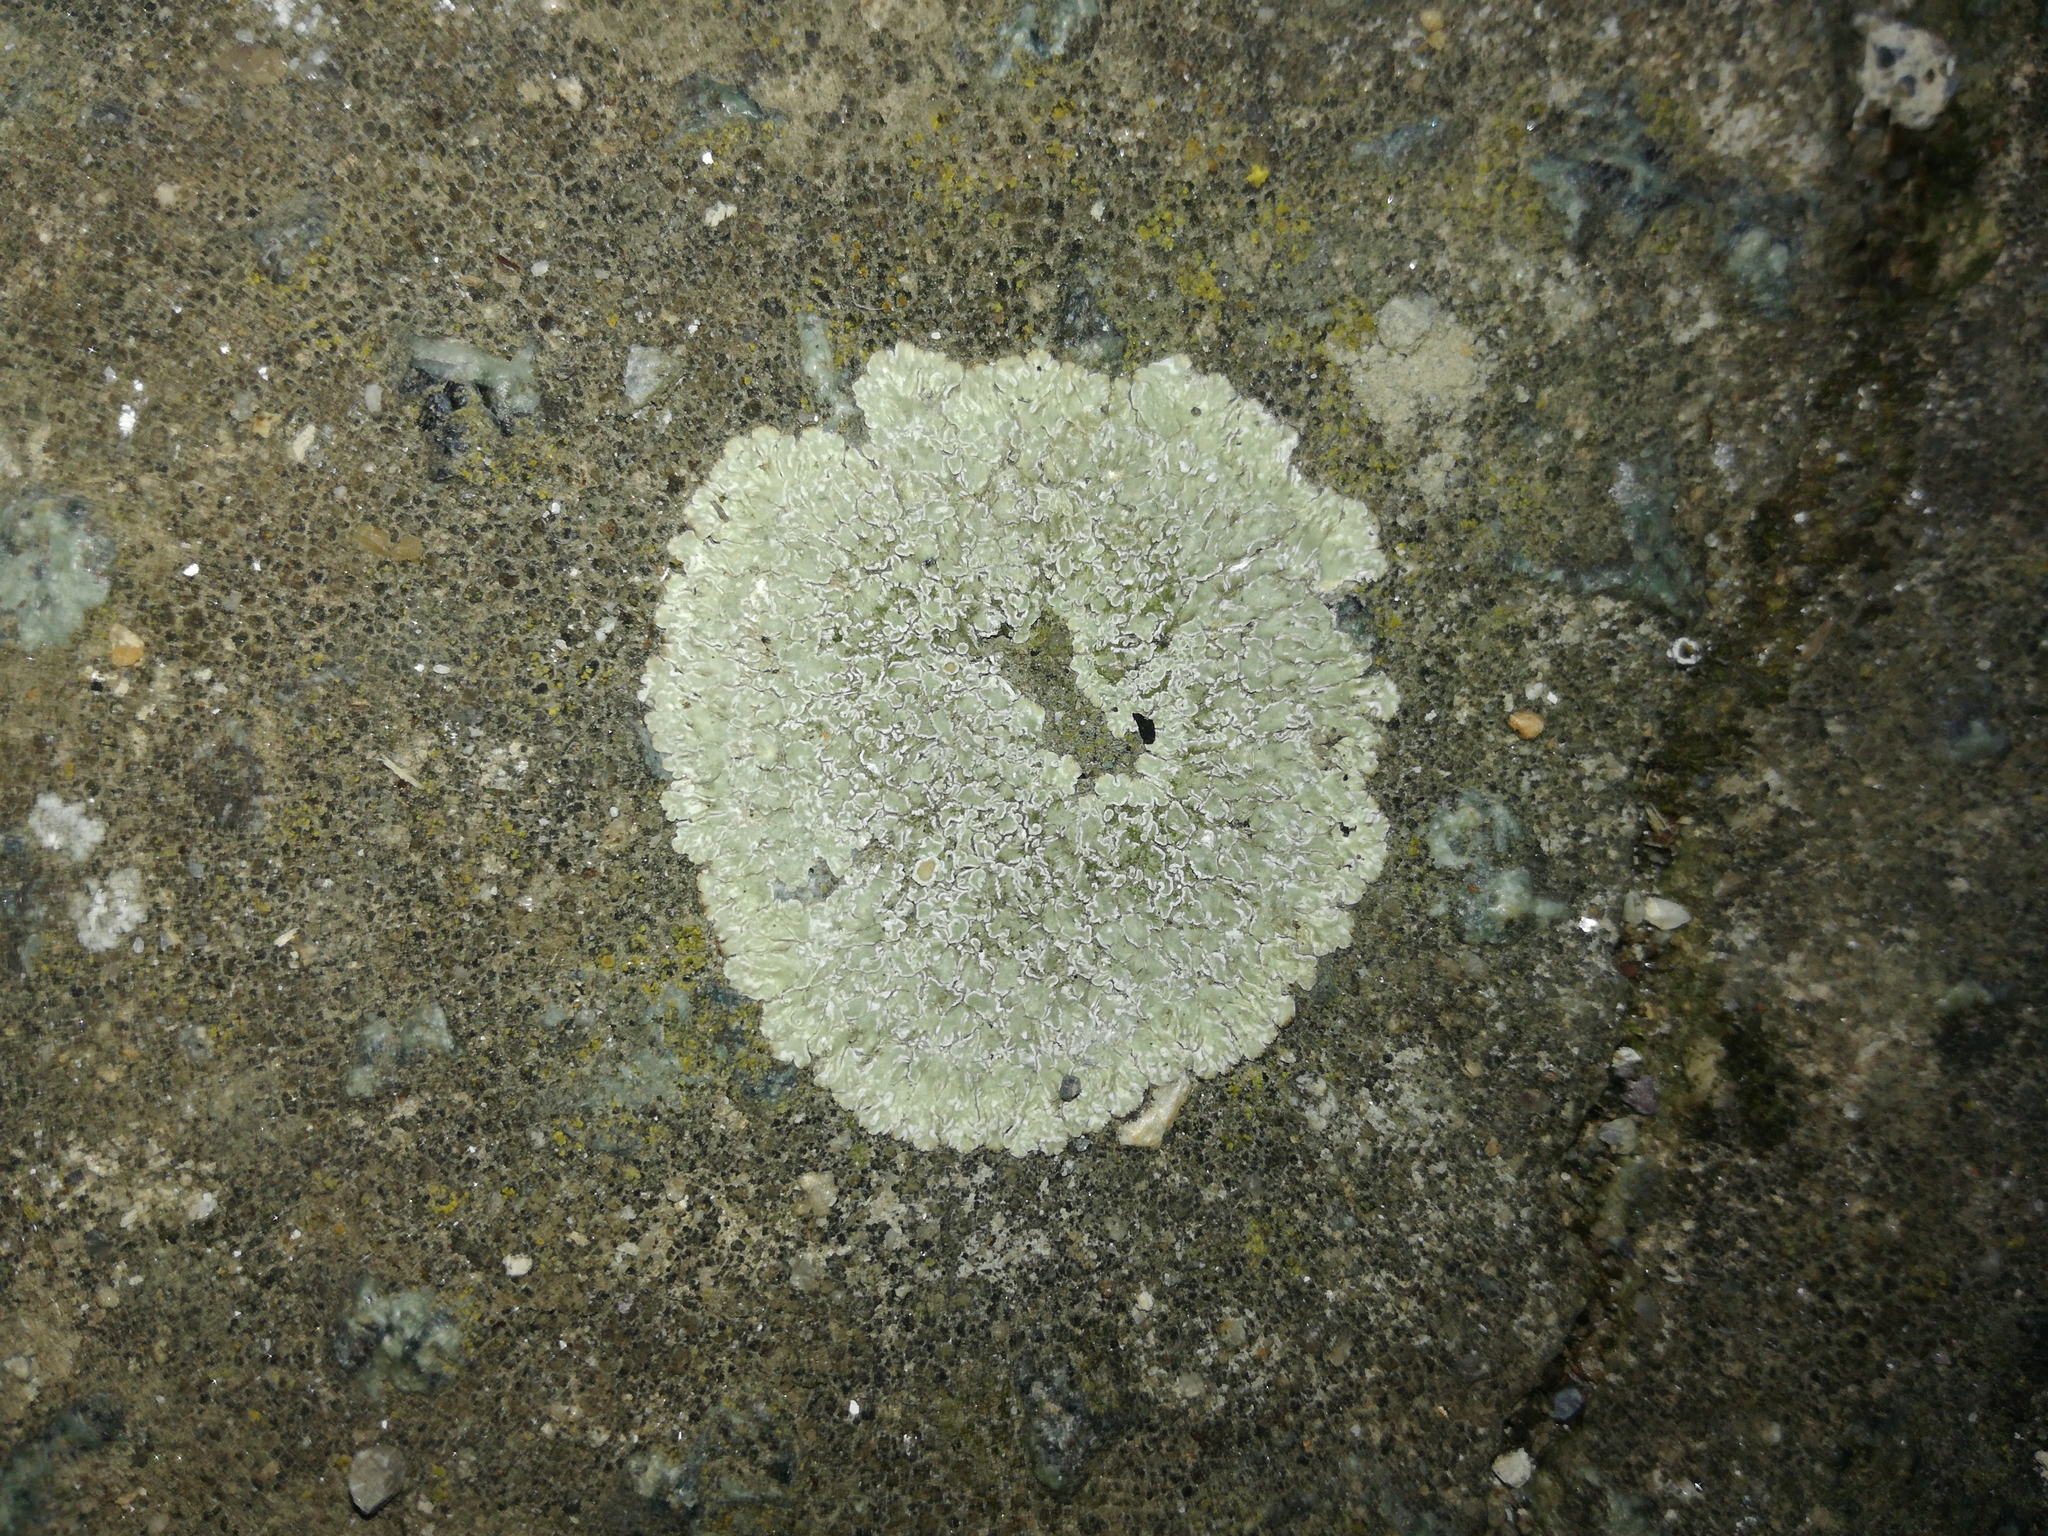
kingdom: Fungi
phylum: Ascomycota
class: Lecanoromycetes
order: Lecanorales
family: Lecanoraceae
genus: Protoparmeliopsis
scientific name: Protoparmeliopsis muralis
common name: Stonewall rim lichen
